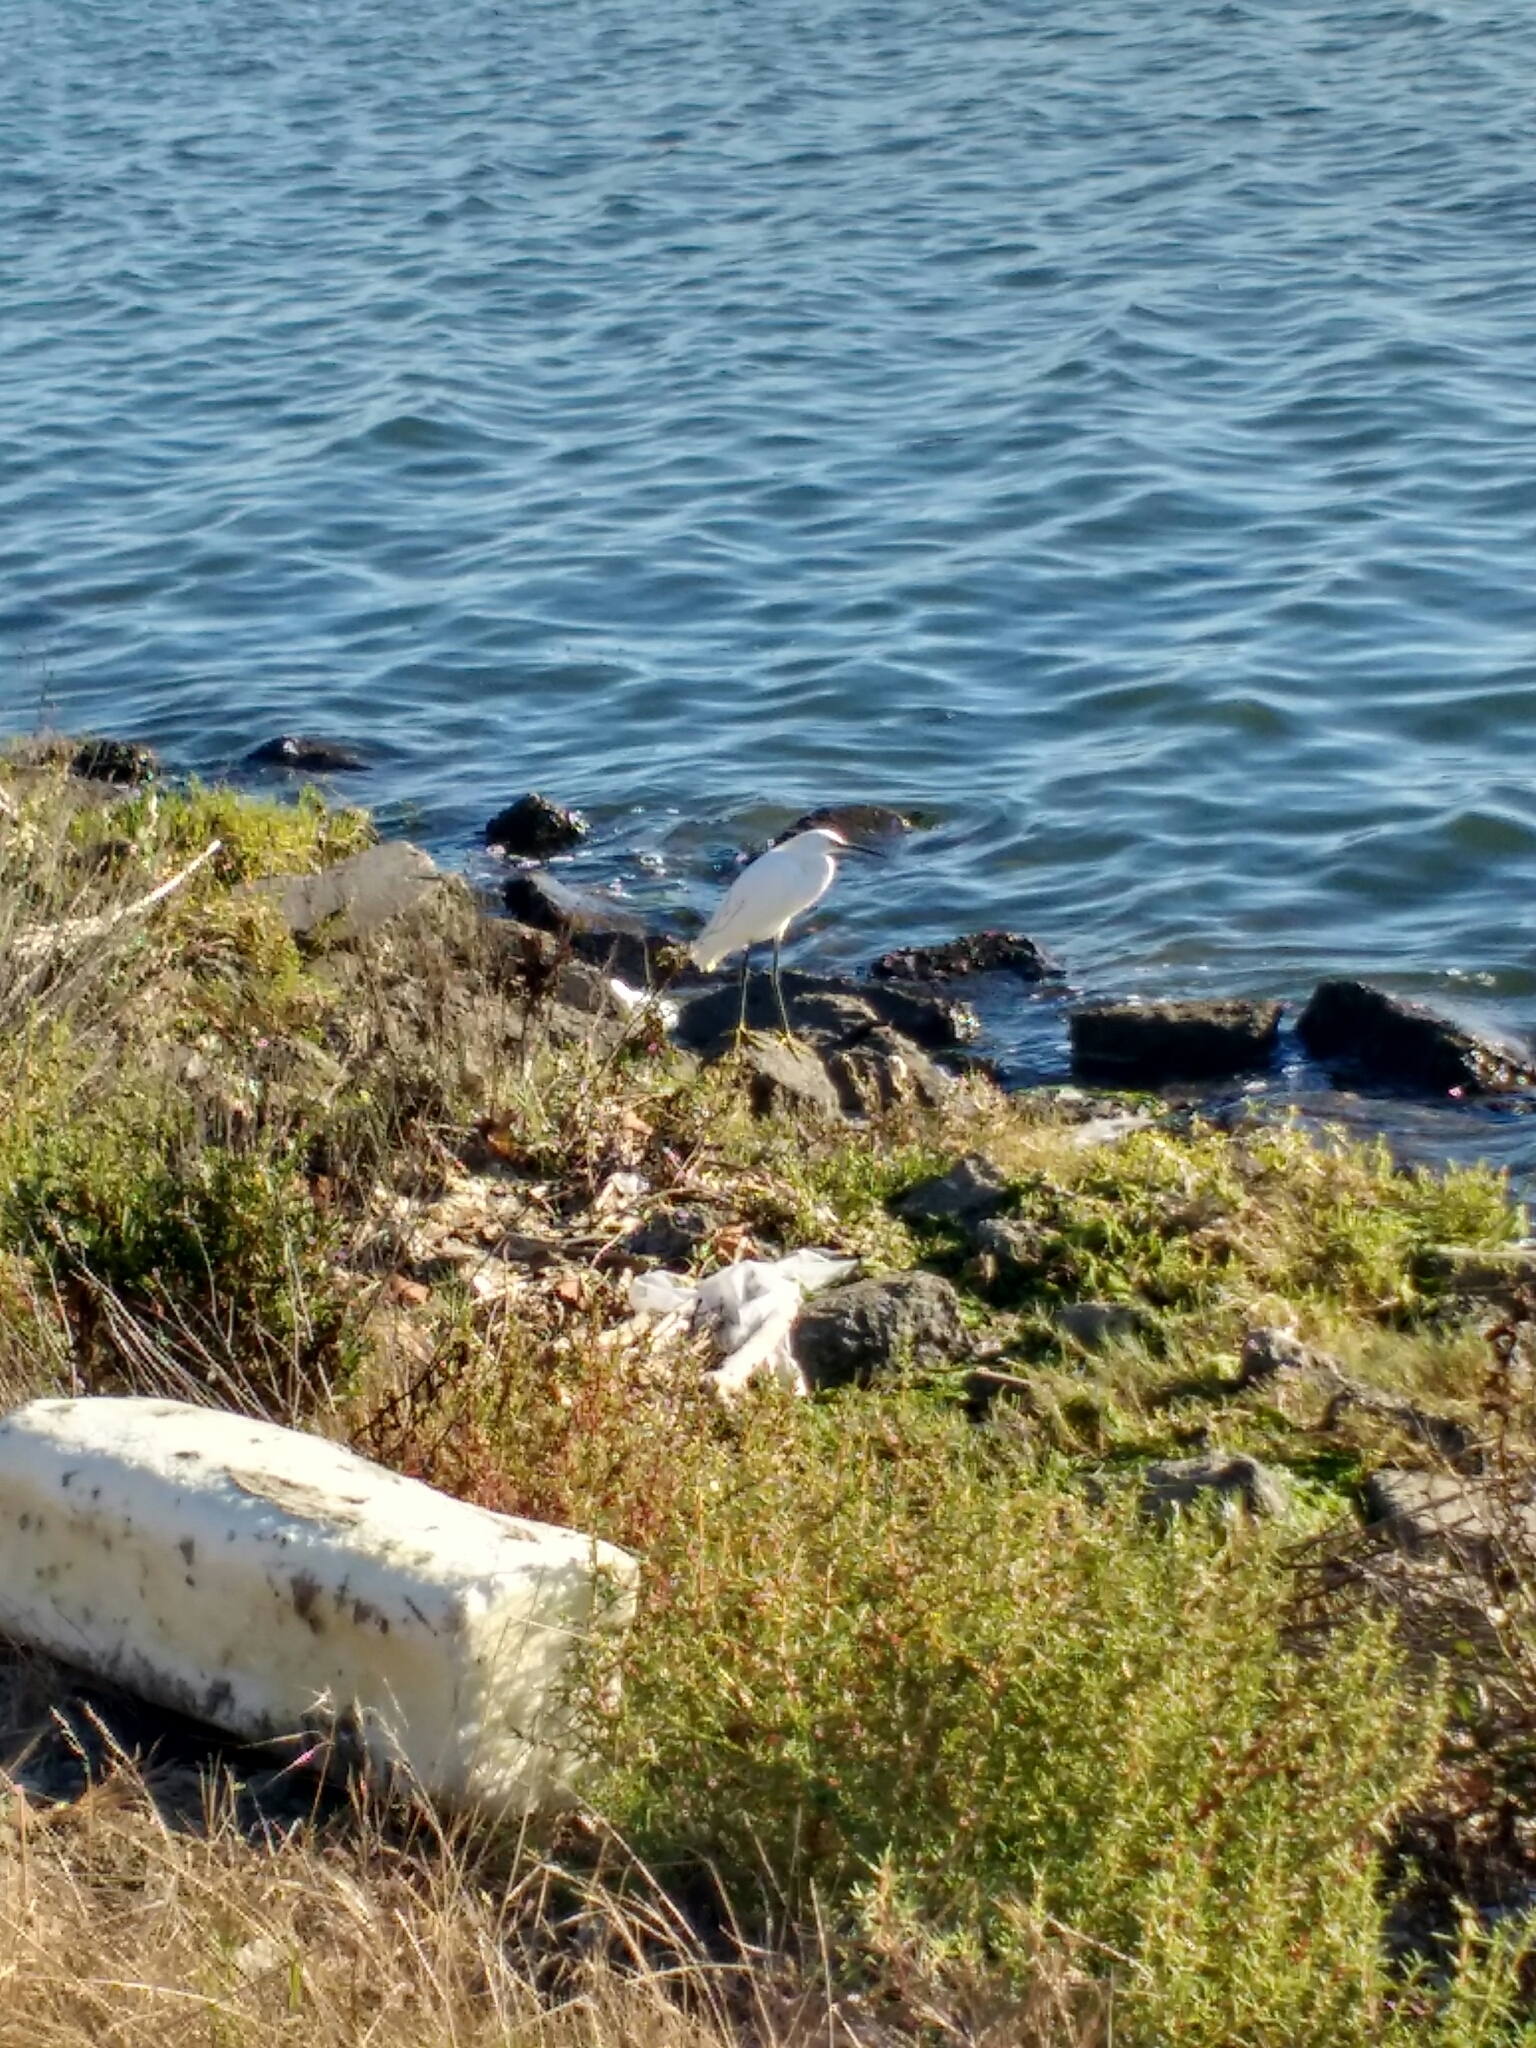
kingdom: Animalia
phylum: Chordata
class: Aves
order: Pelecaniformes
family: Ardeidae
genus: Egretta
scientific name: Egretta thula
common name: Snowy egret
